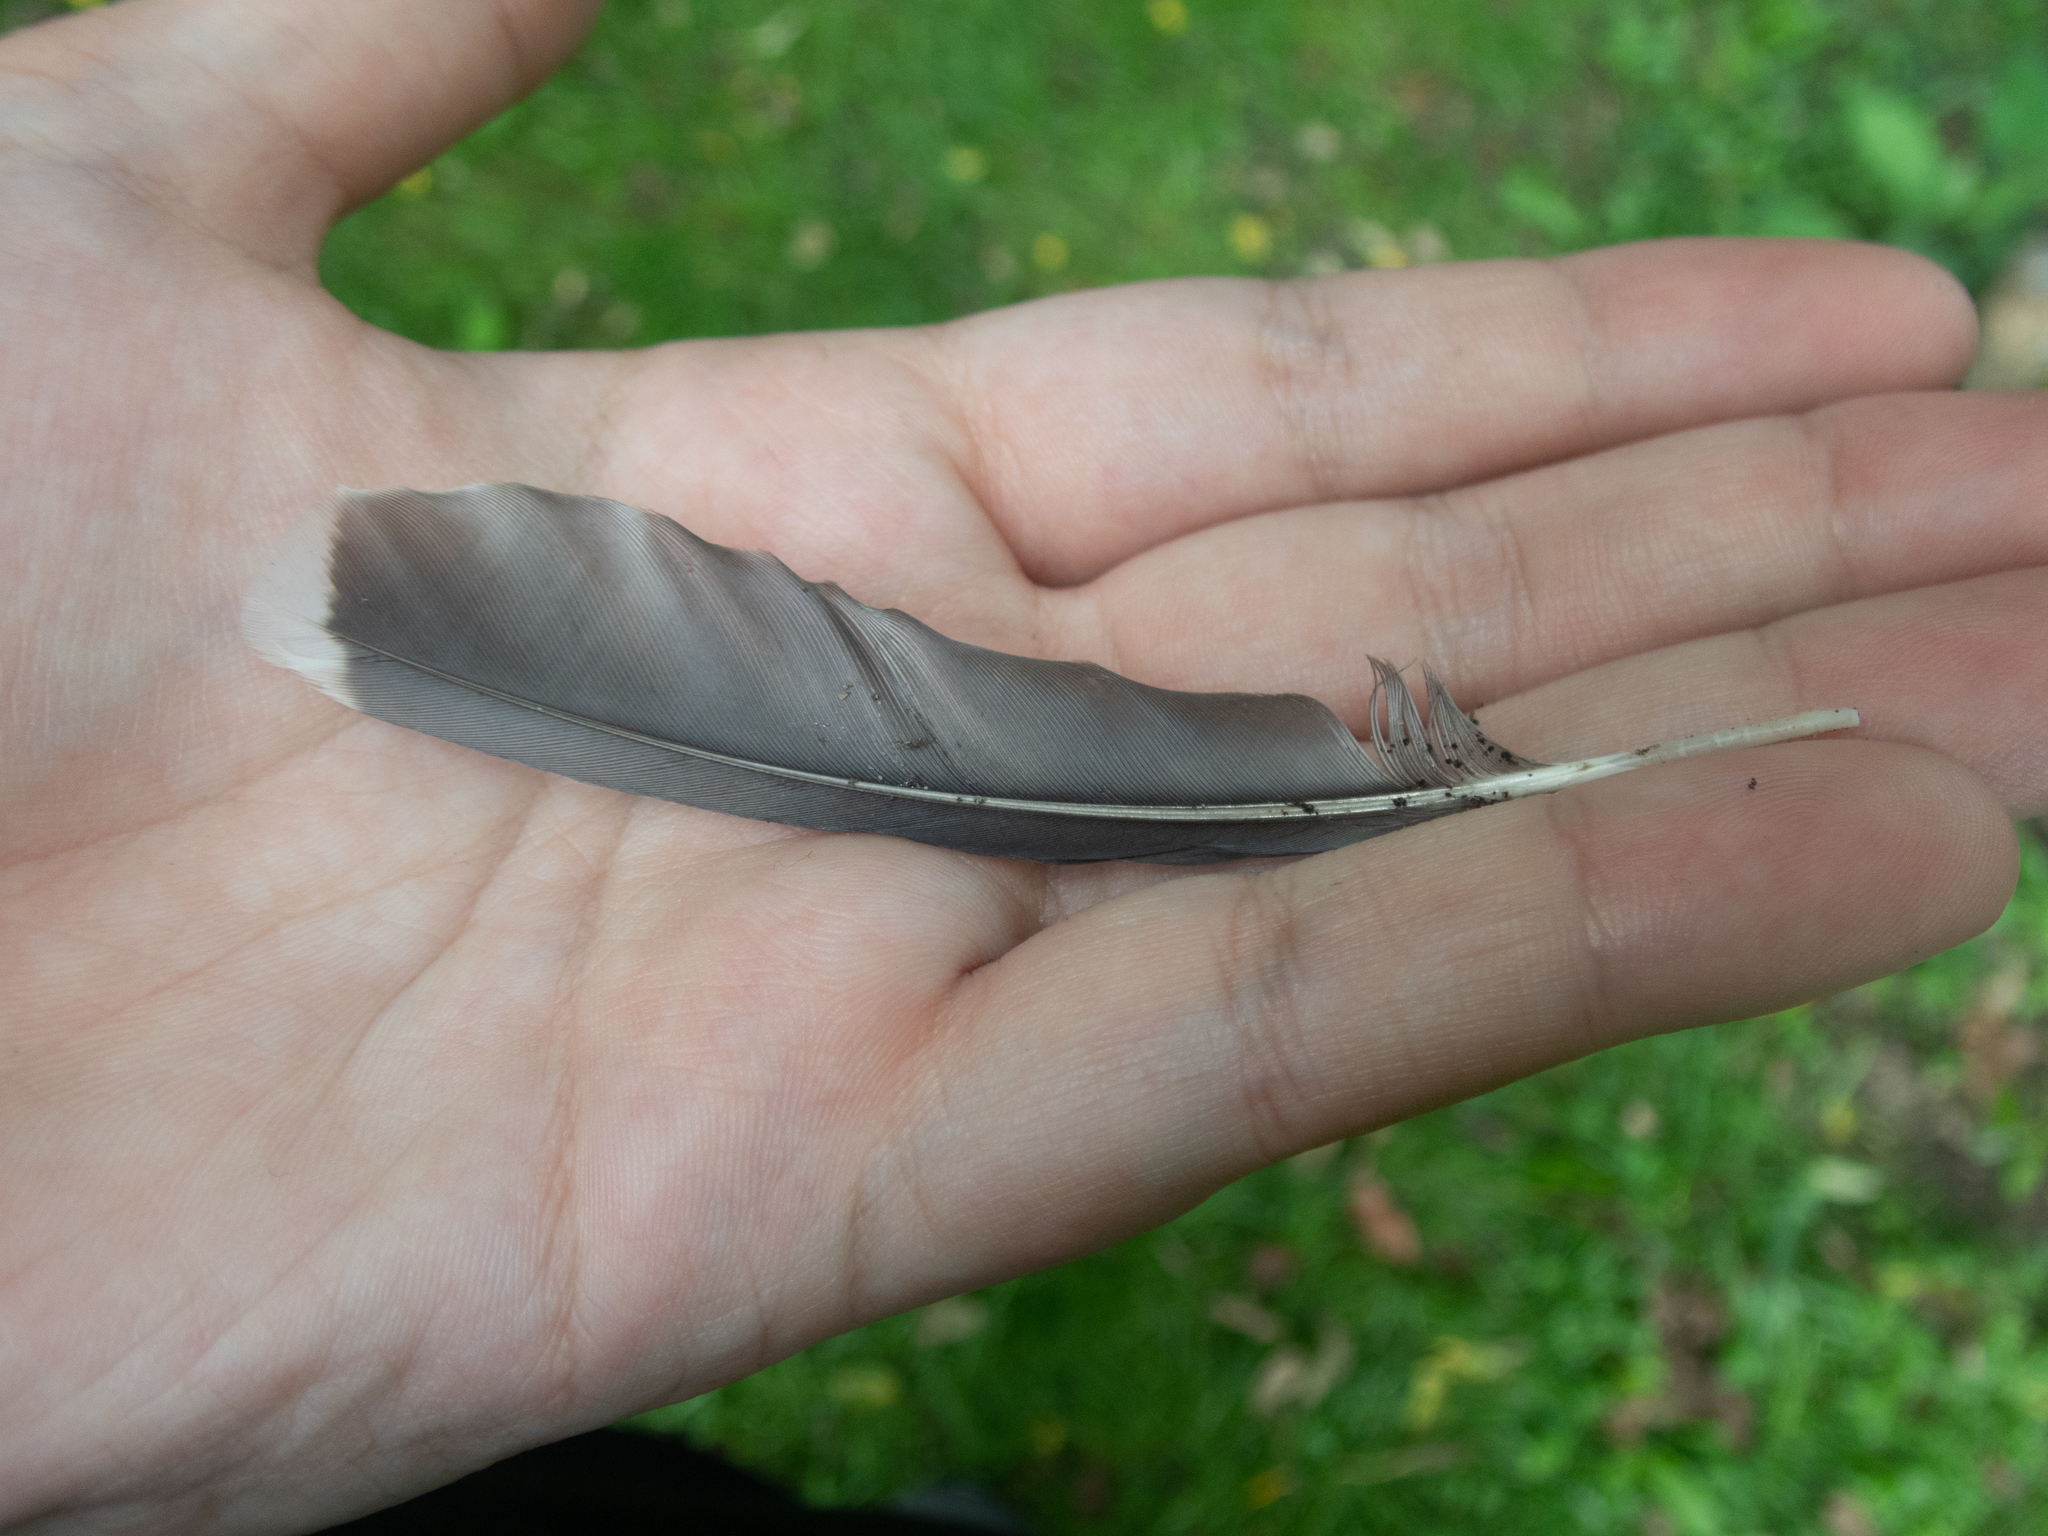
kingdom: Animalia
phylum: Chordata
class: Aves
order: Passeriformes
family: Corvidae
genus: Cyanocitta
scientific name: Cyanocitta cristata
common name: Blue jay
